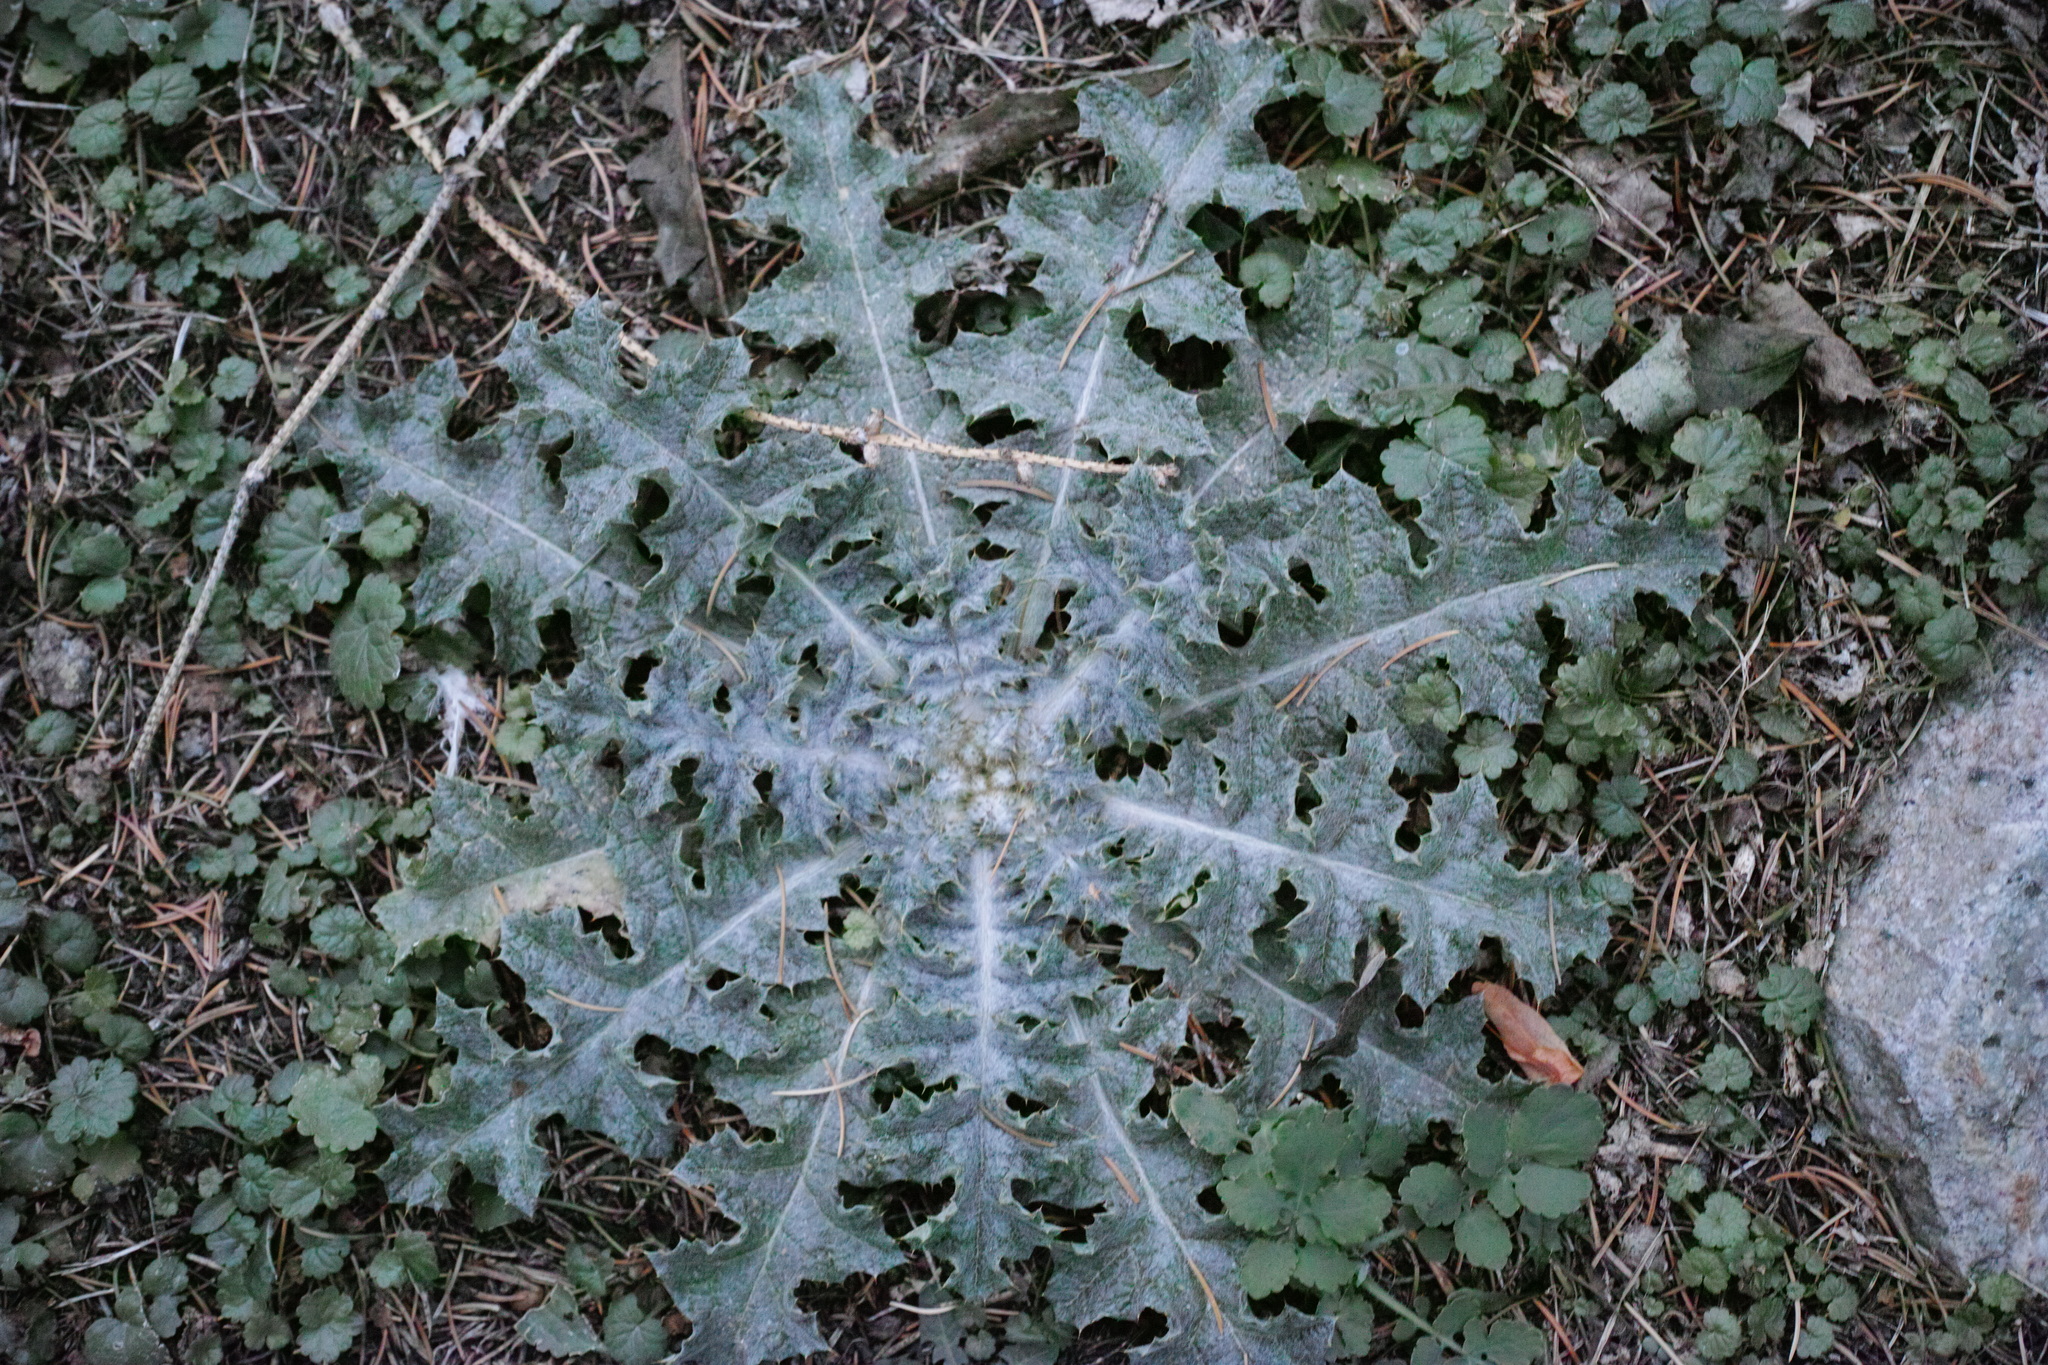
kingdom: Plantae
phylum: Tracheophyta
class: Magnoliopsida
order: Asterales
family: Asteraceae
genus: Onopordum
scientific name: Onopordum acanthium
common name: Scotch thistle
